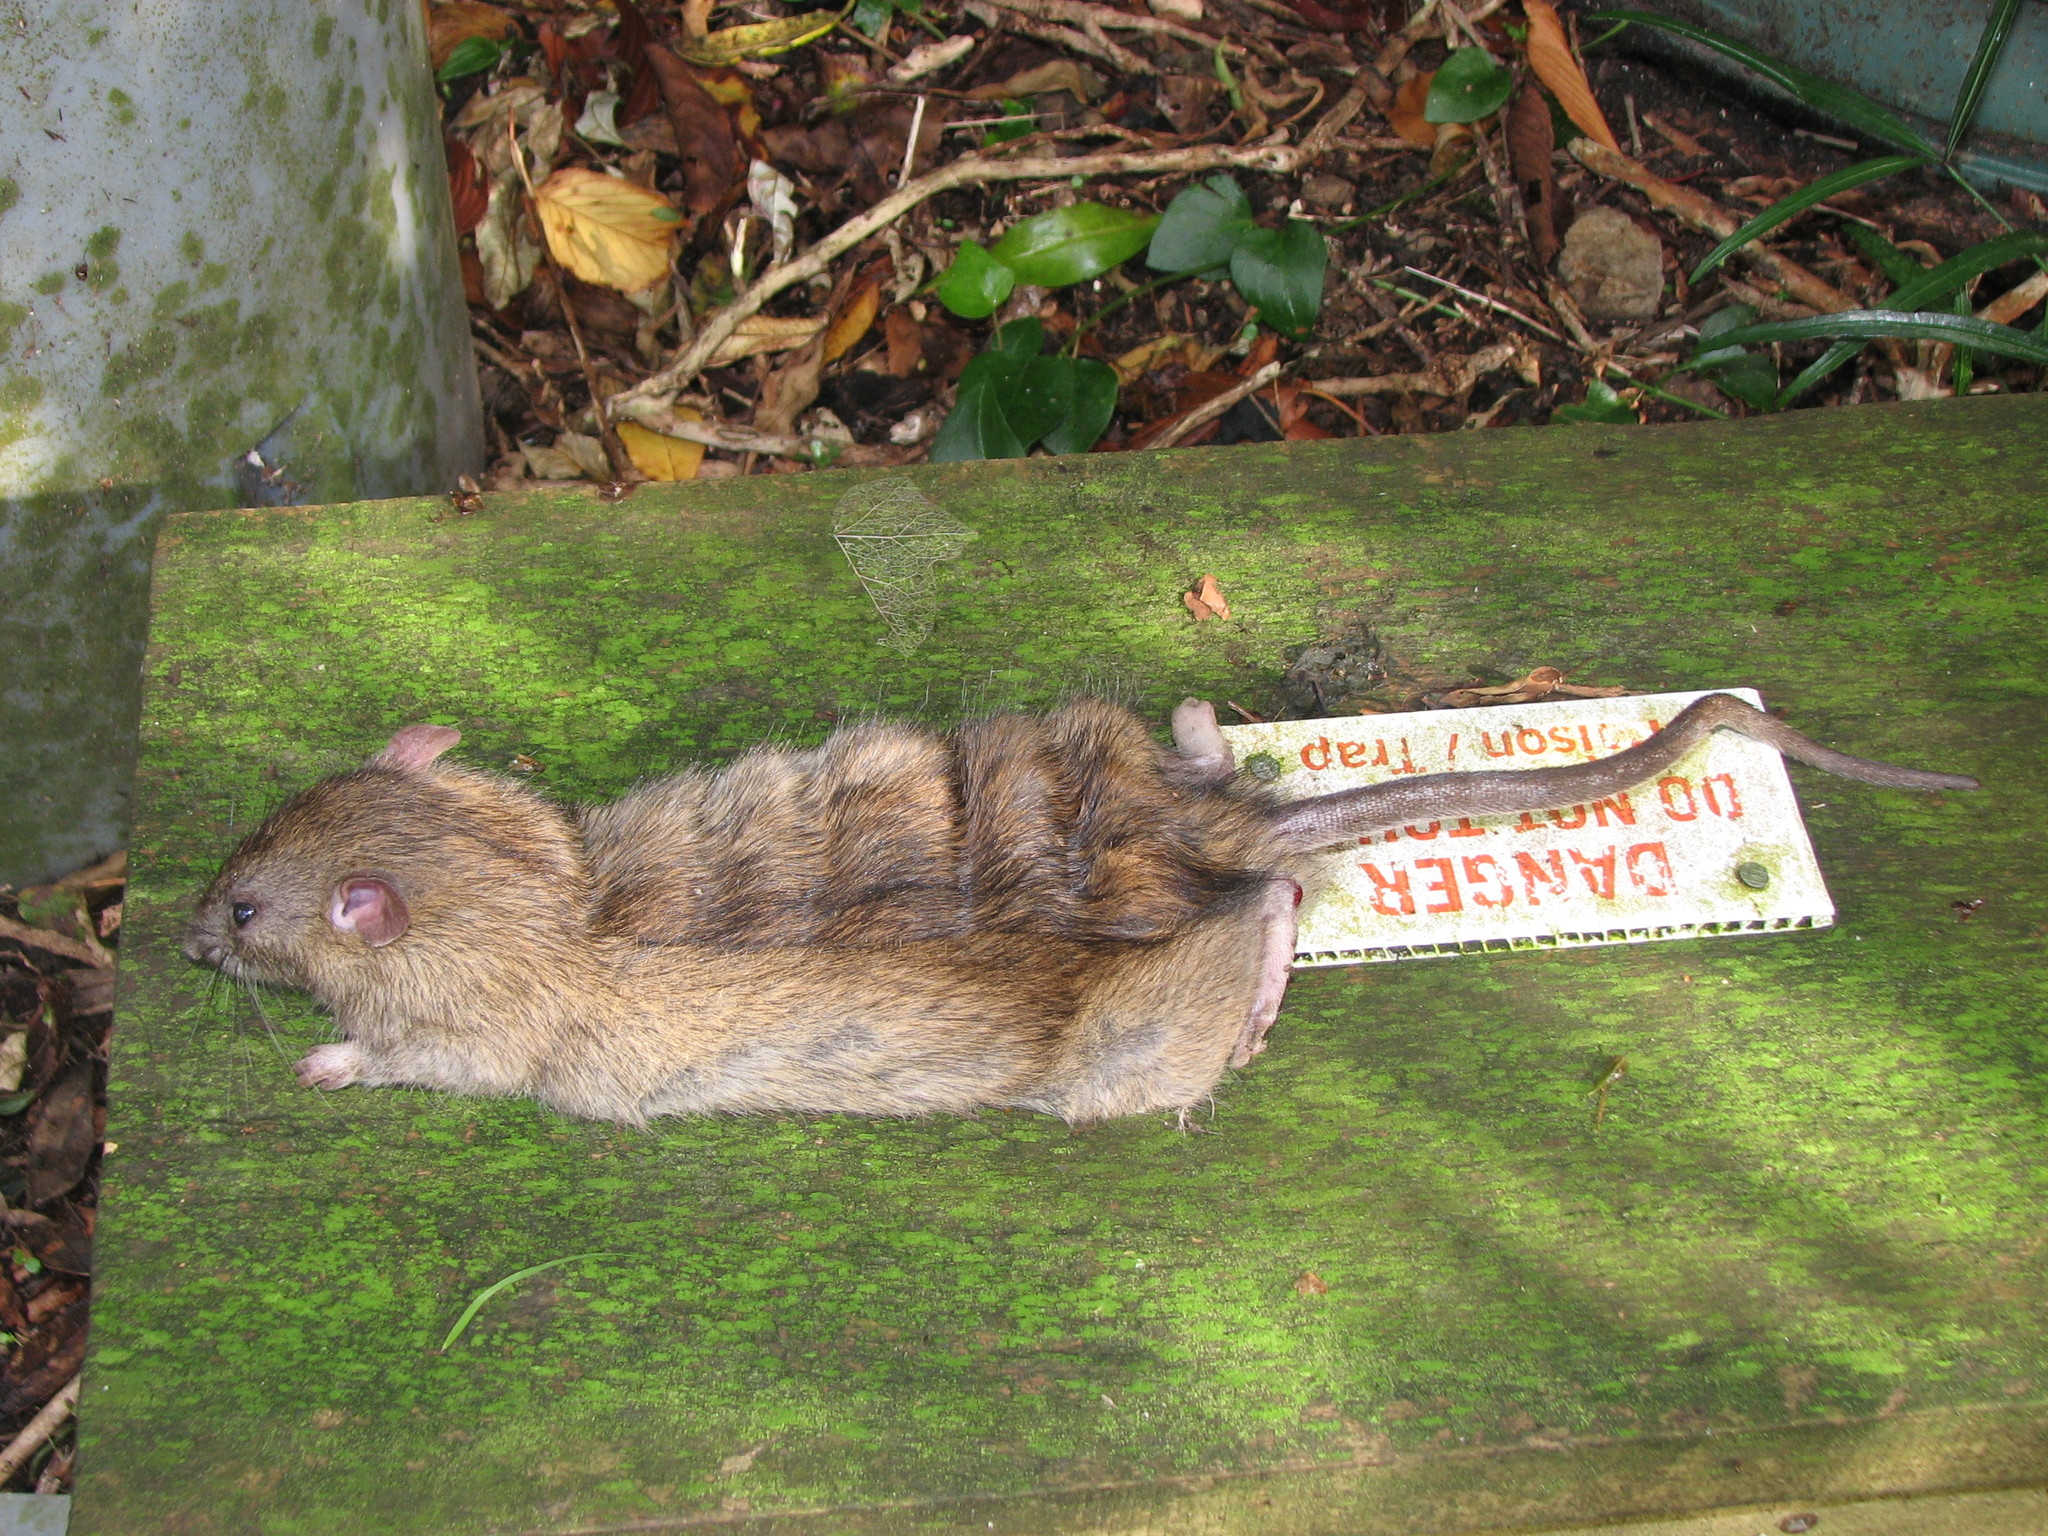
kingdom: Animalia
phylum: Chordata
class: Mammalia
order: Rodentia
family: Muridae
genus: Rattus
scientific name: Rattus norvegicus
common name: Brown rat
